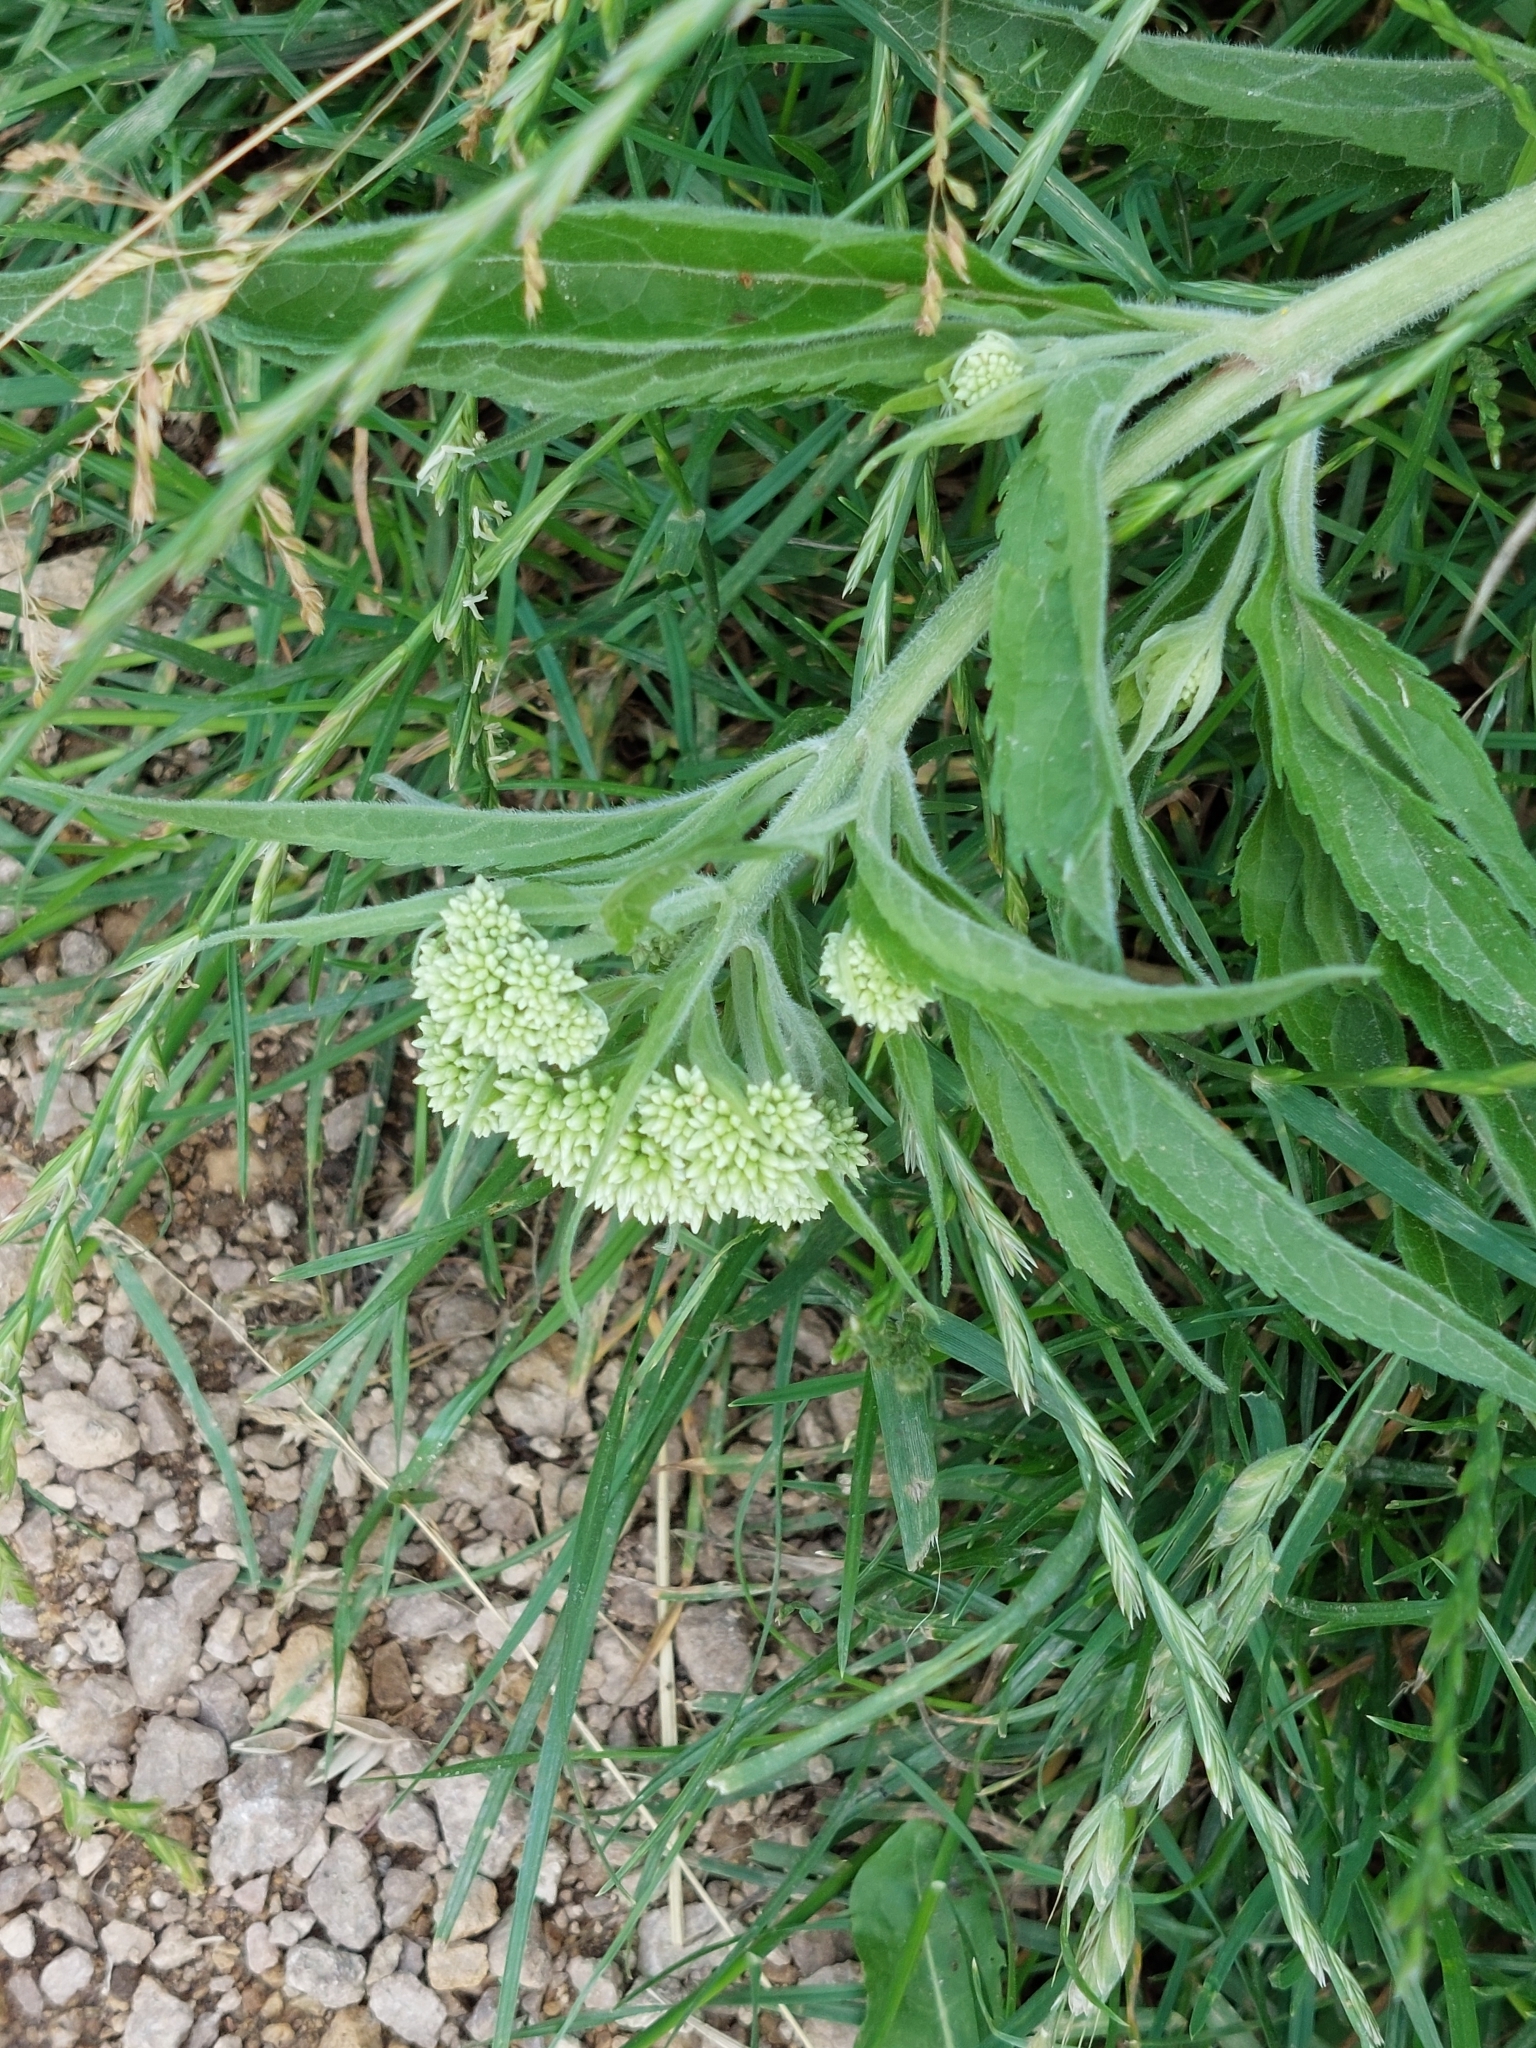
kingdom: Plantae
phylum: Tracheophyta
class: Magnoliopsida
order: Asterales
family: Asteraceae
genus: Eupatorium
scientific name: Eupatorium cannabinum
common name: Hemp-agrimony
